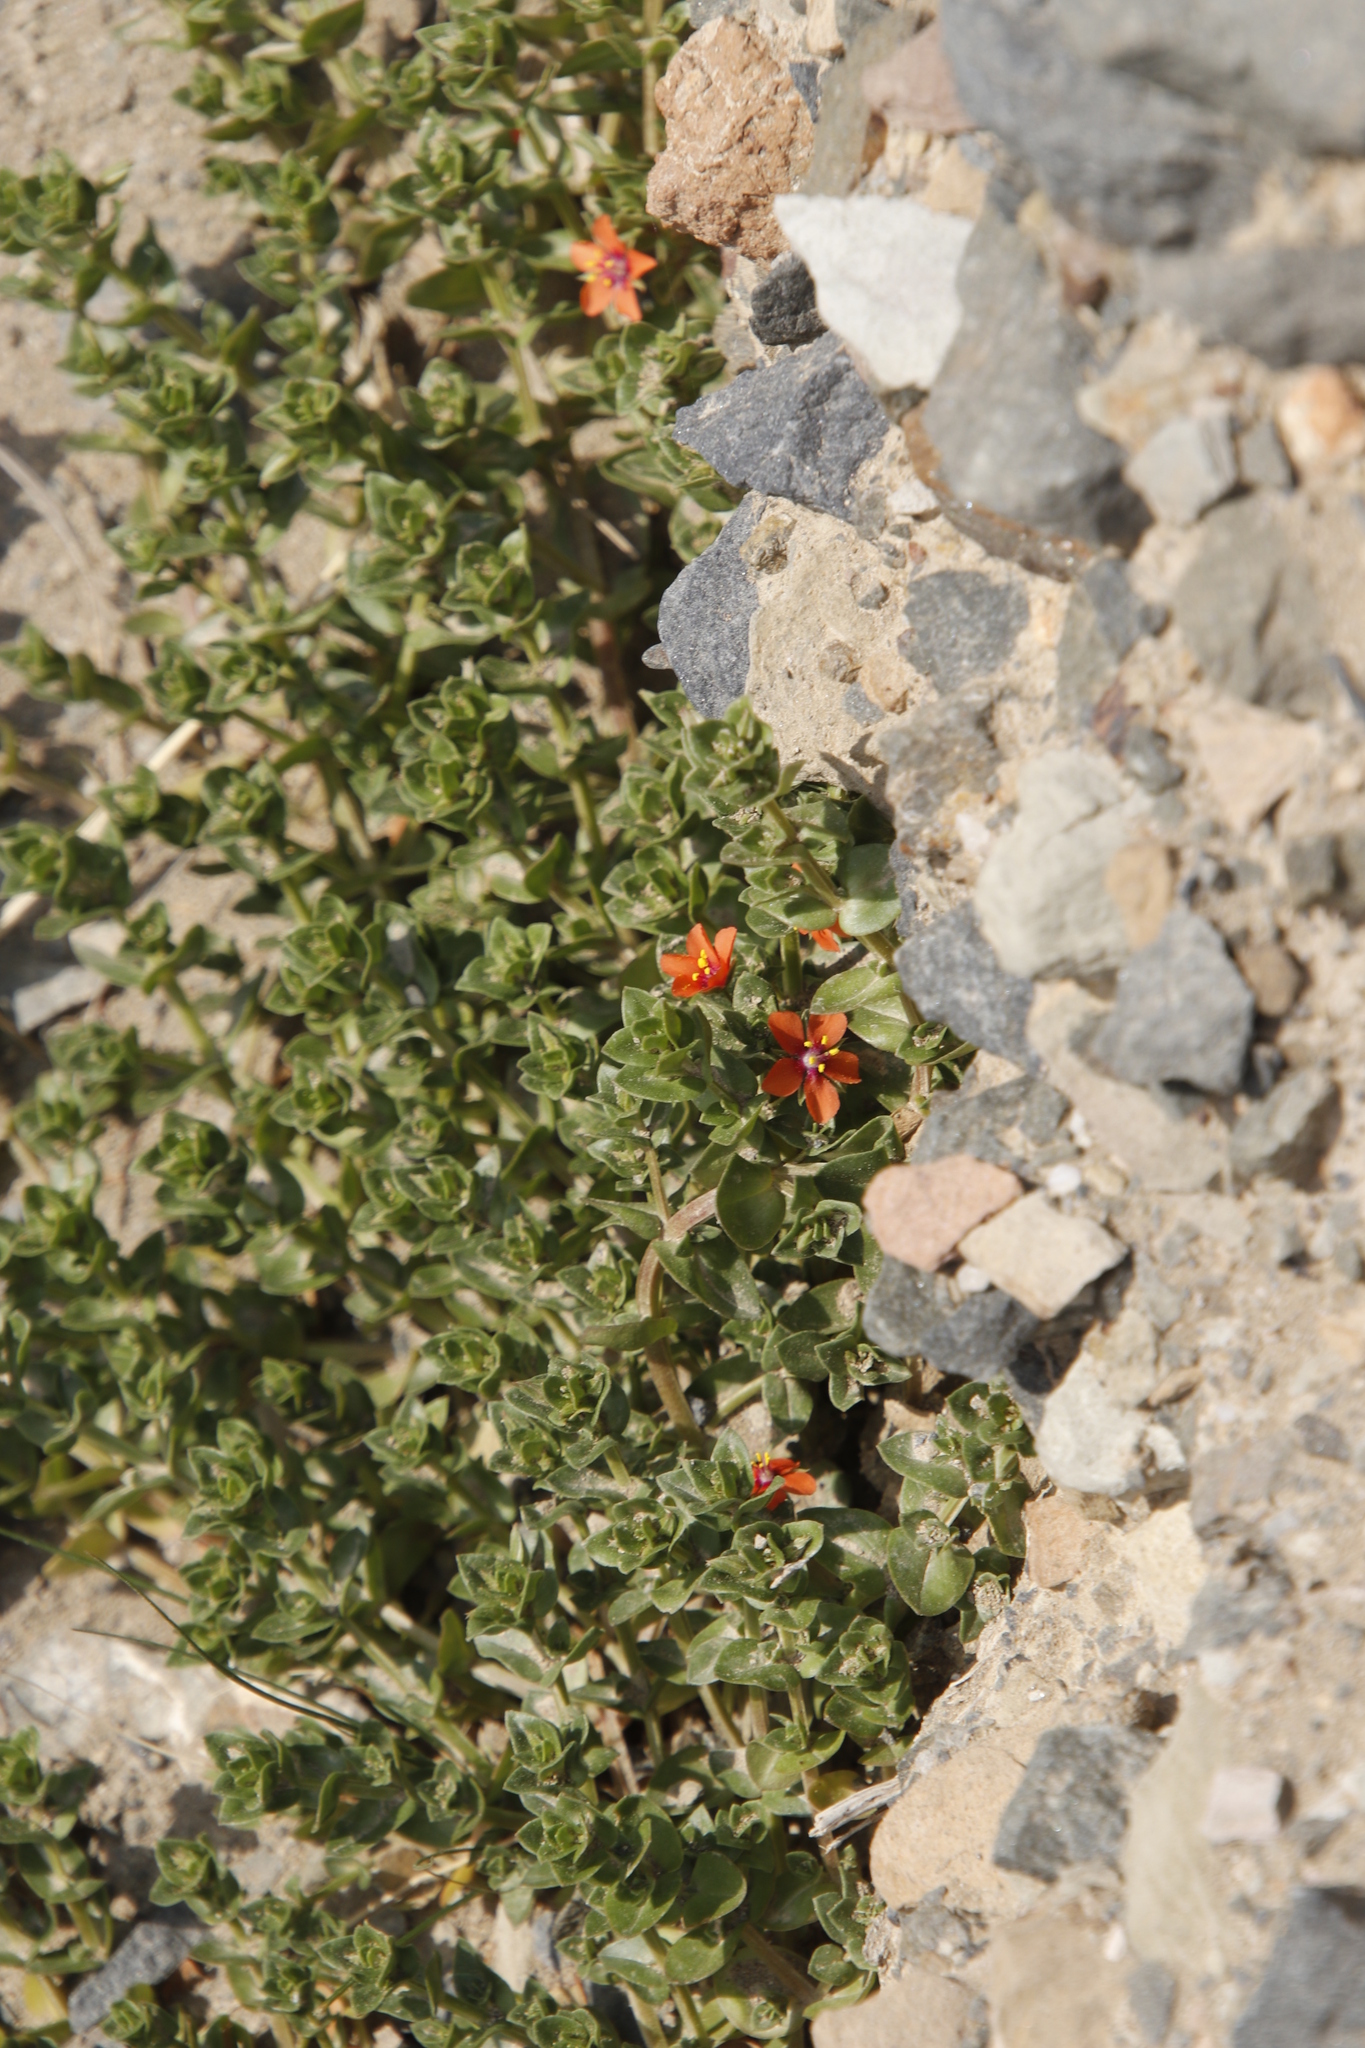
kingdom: Plantae
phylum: Tracheophyta
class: Magnoliopsida
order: Ericales
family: Primulaceae
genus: Lysimachia
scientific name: Lysimachia arvensis
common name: Scarlet pimpernel
